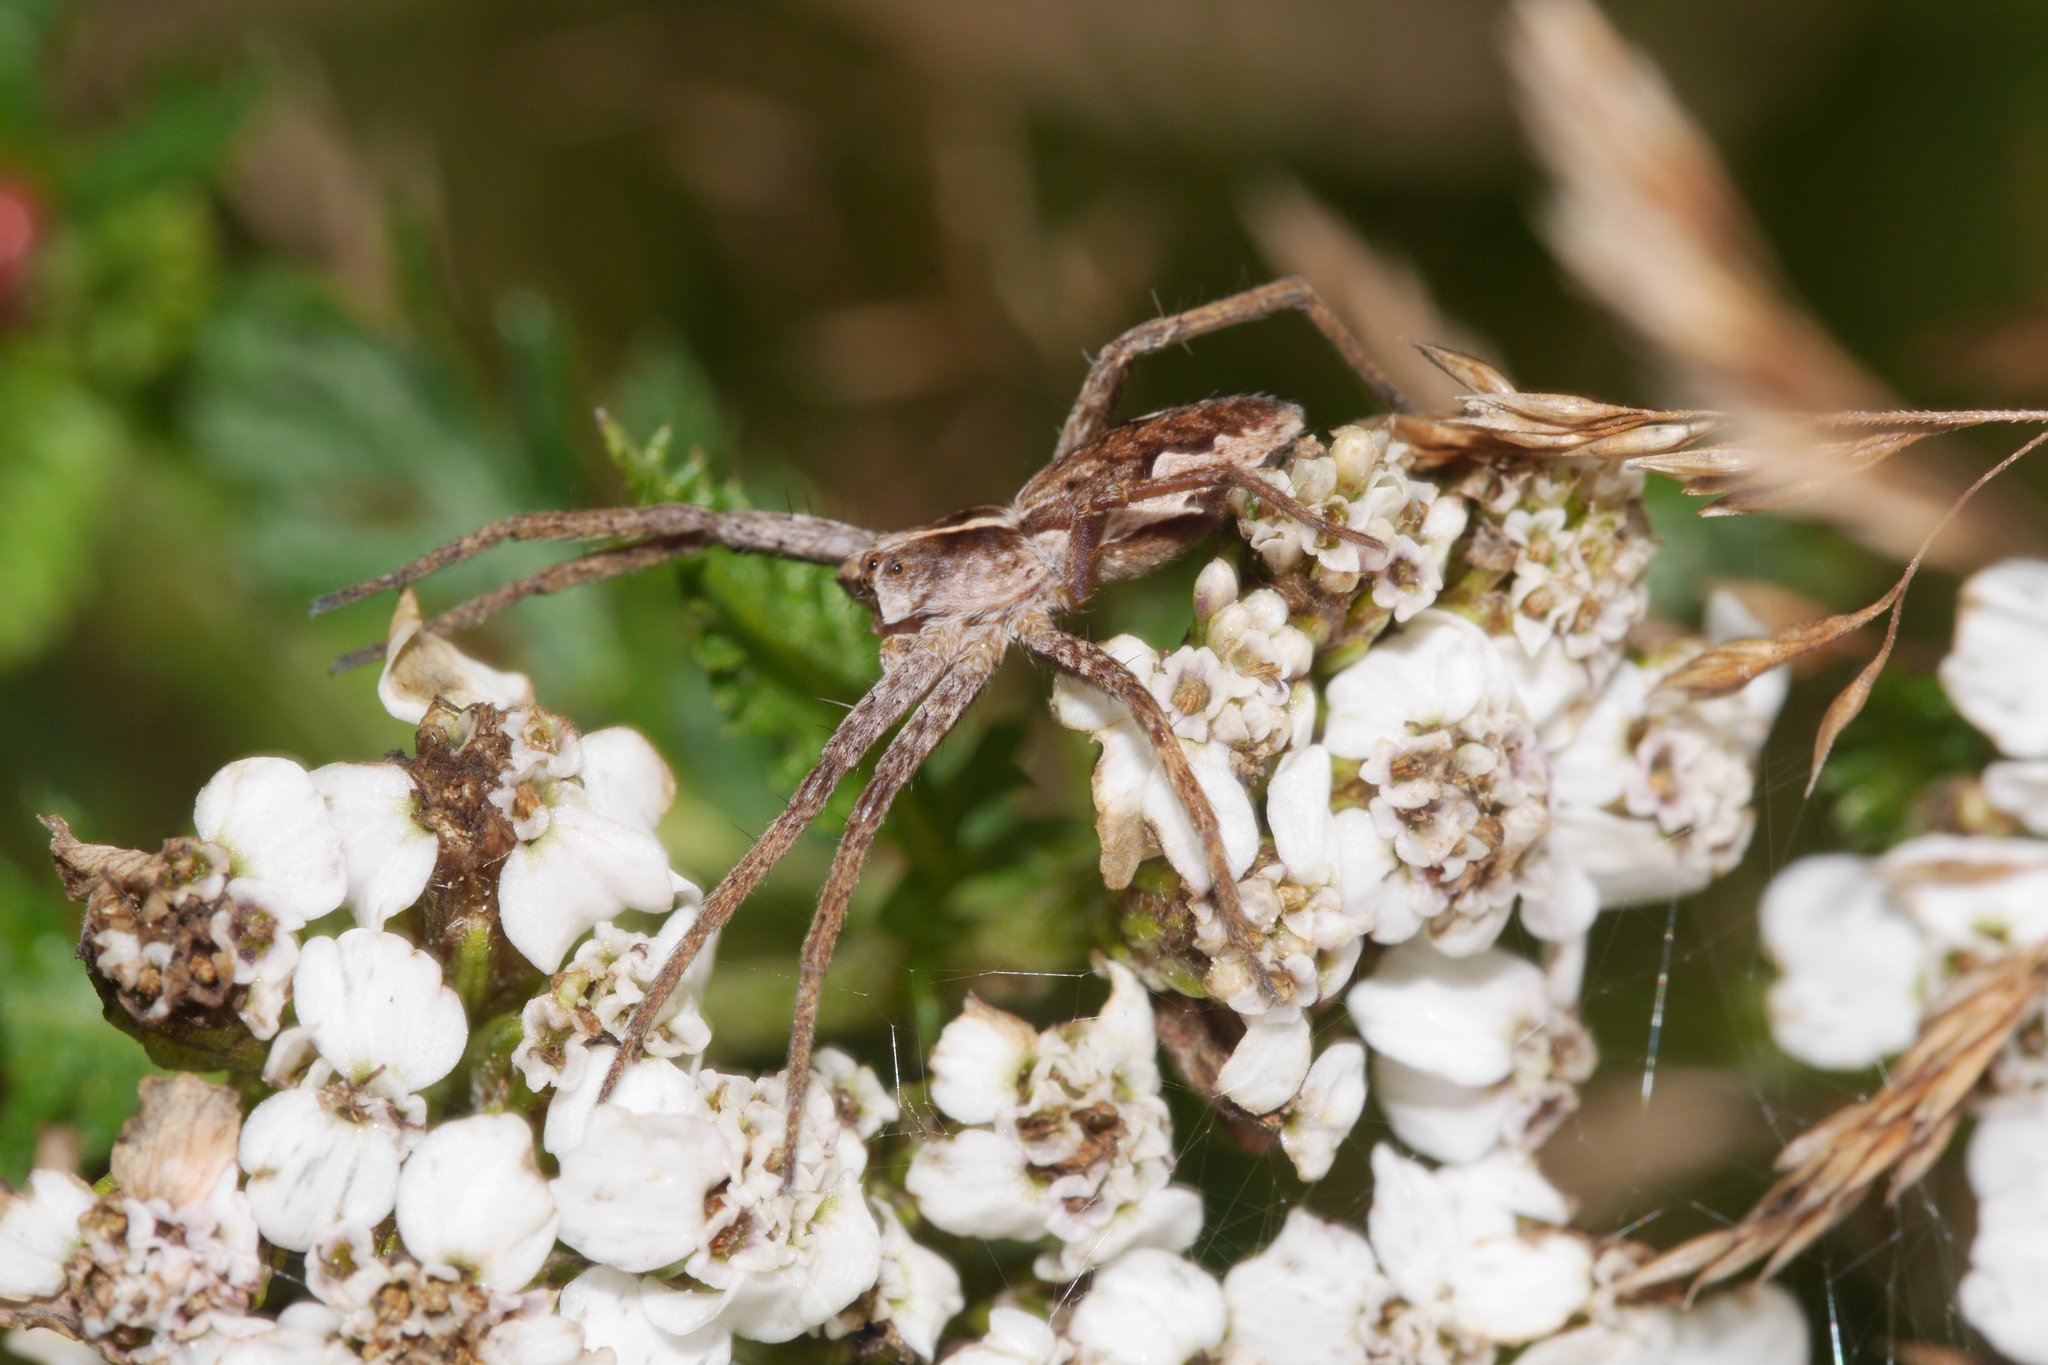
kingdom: Animalia
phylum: Arthropoda
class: Arachnida
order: Araneae
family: Pisauridae
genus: Pisaura
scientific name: Pisaura mirabilis
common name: Tent spider
